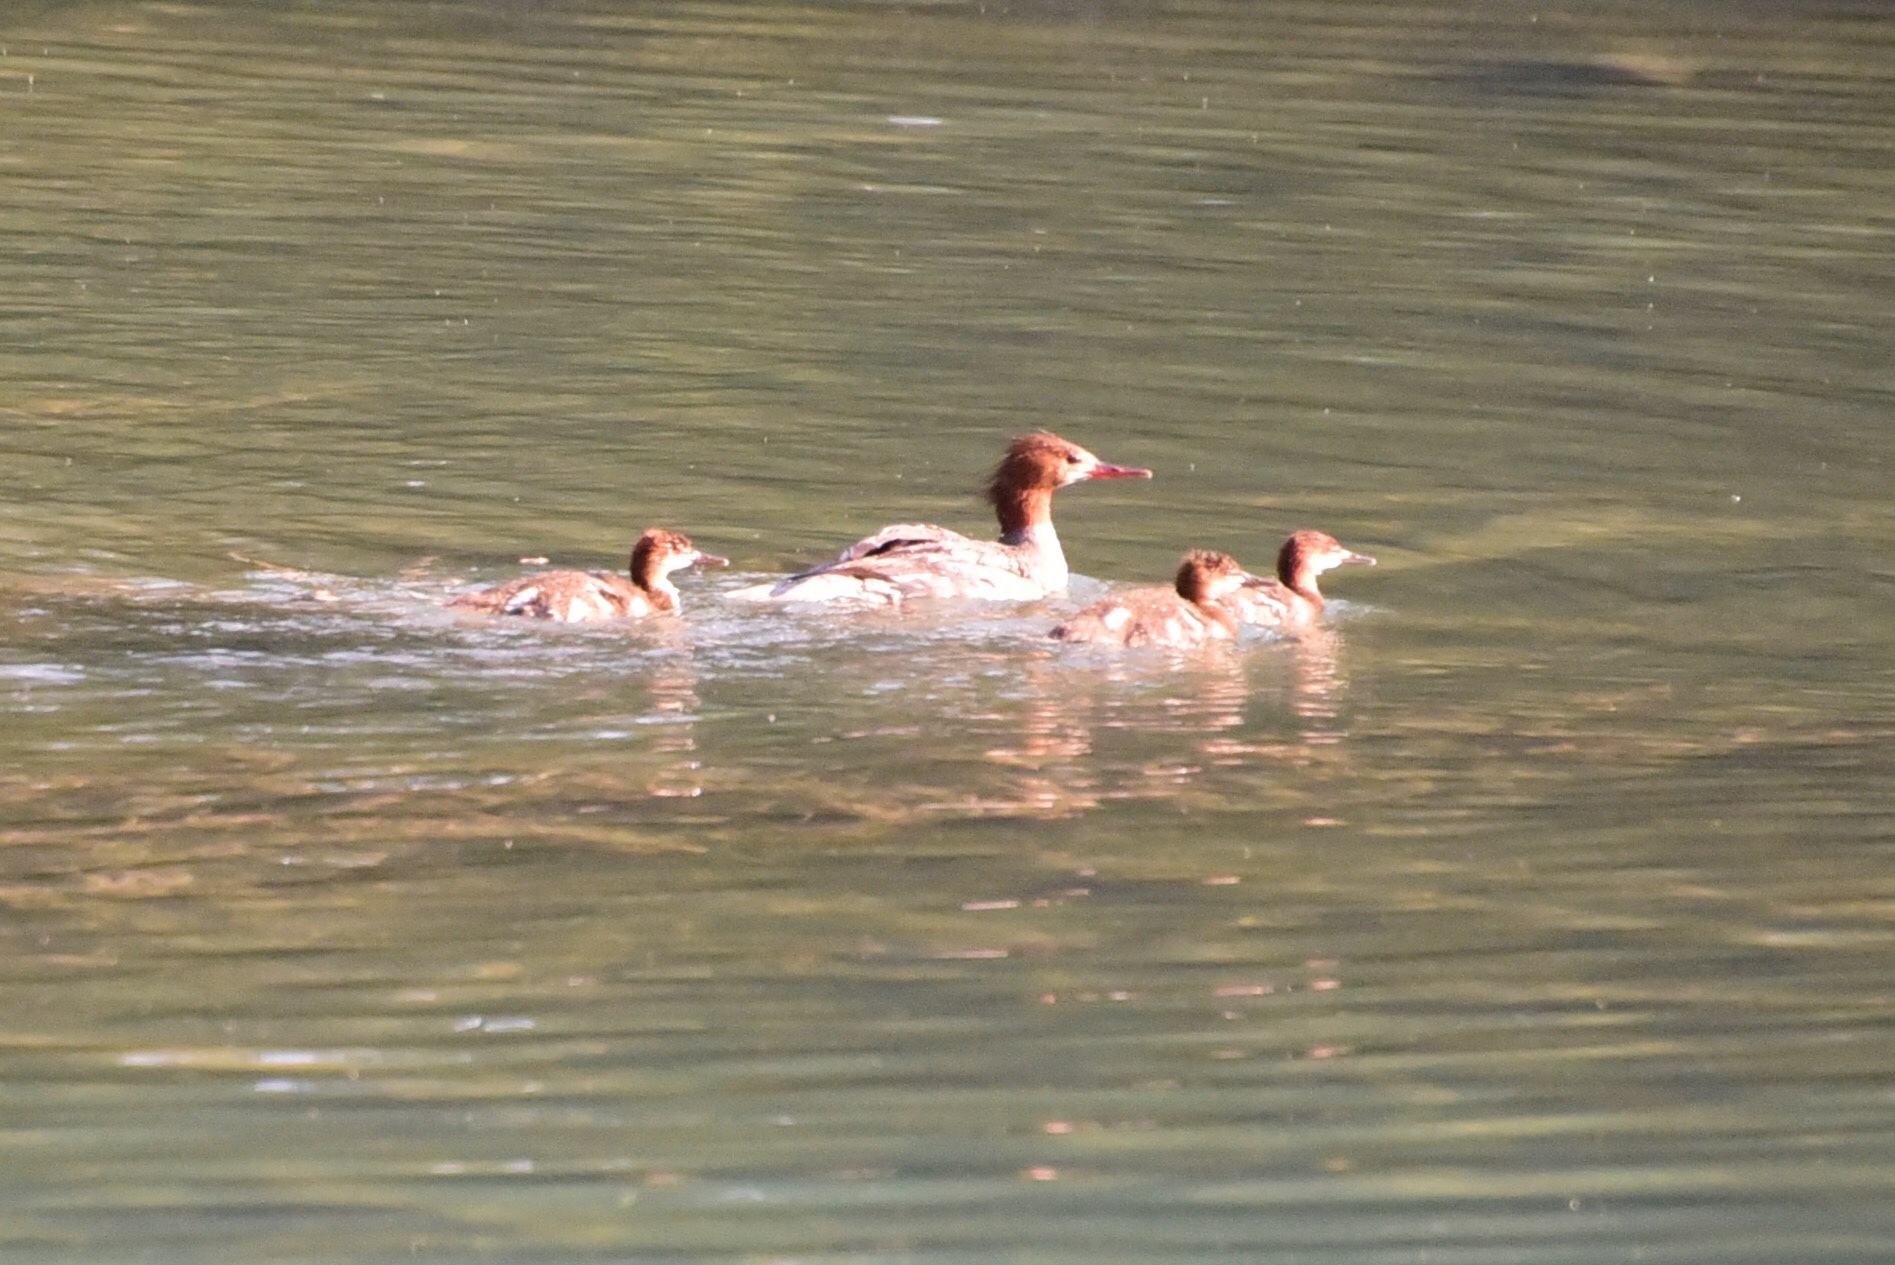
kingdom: Animalia
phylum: Chordata
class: Aves
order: Anseriformes
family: Anatidae
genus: Mergus
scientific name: Mergus merganser
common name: Common merganser
